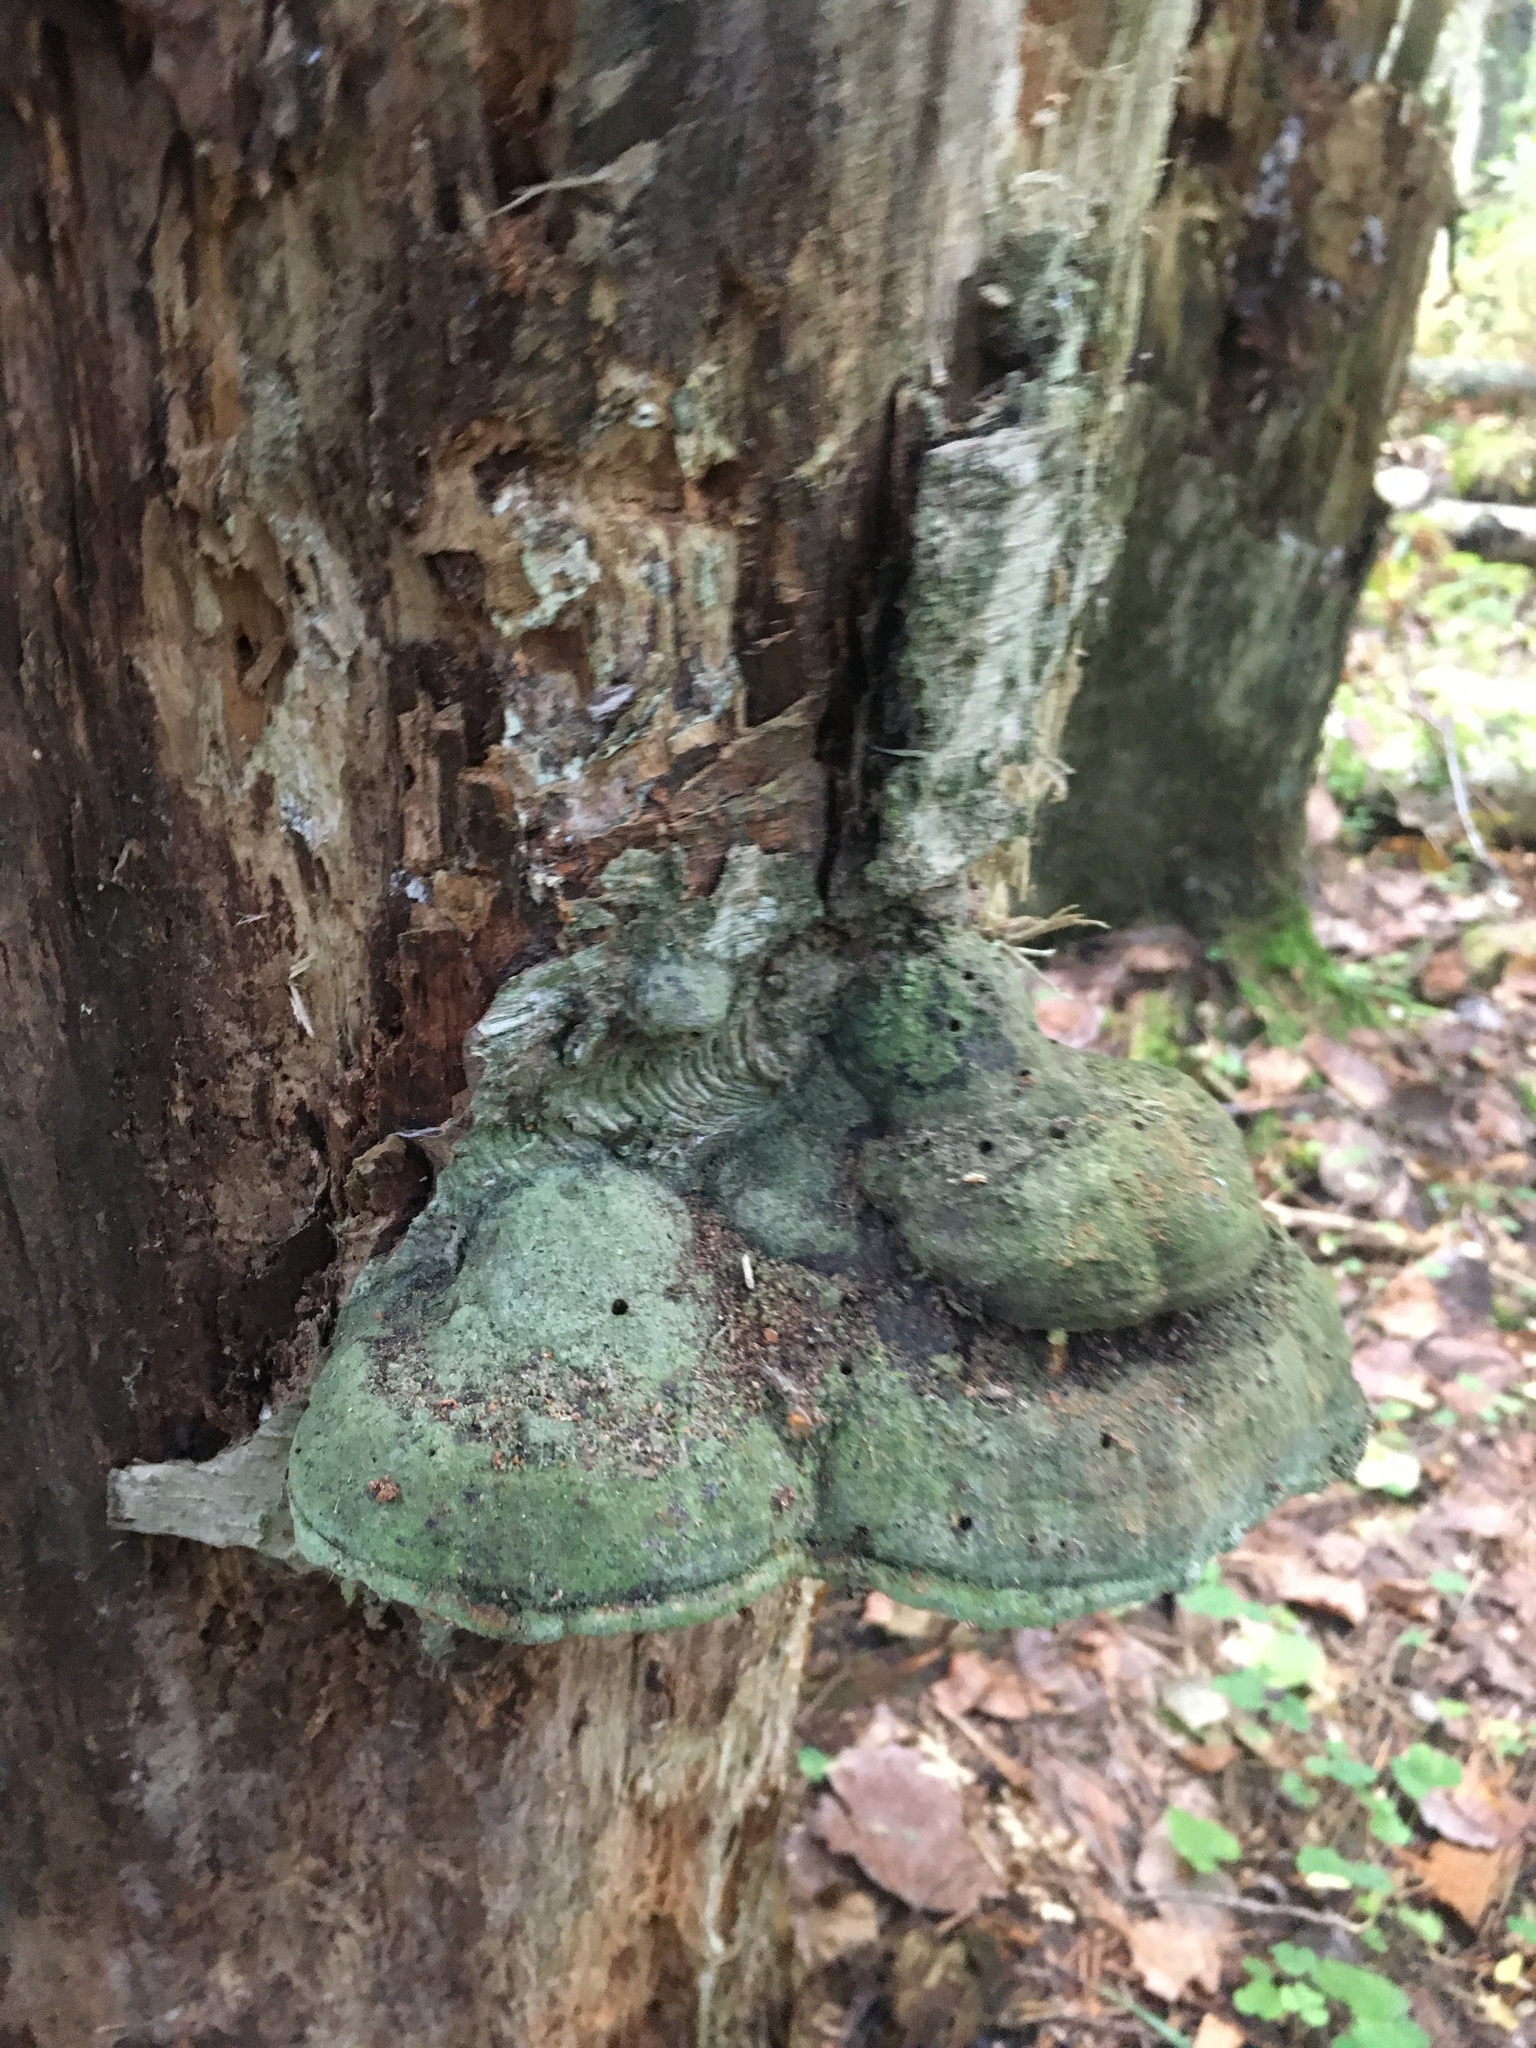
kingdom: Fungi
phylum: Basidiomycota
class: Agaricomycetes
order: Polyporales
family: Polyporaceae
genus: Fomes
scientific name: Fomes fomentarius
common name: Hoof fungus
